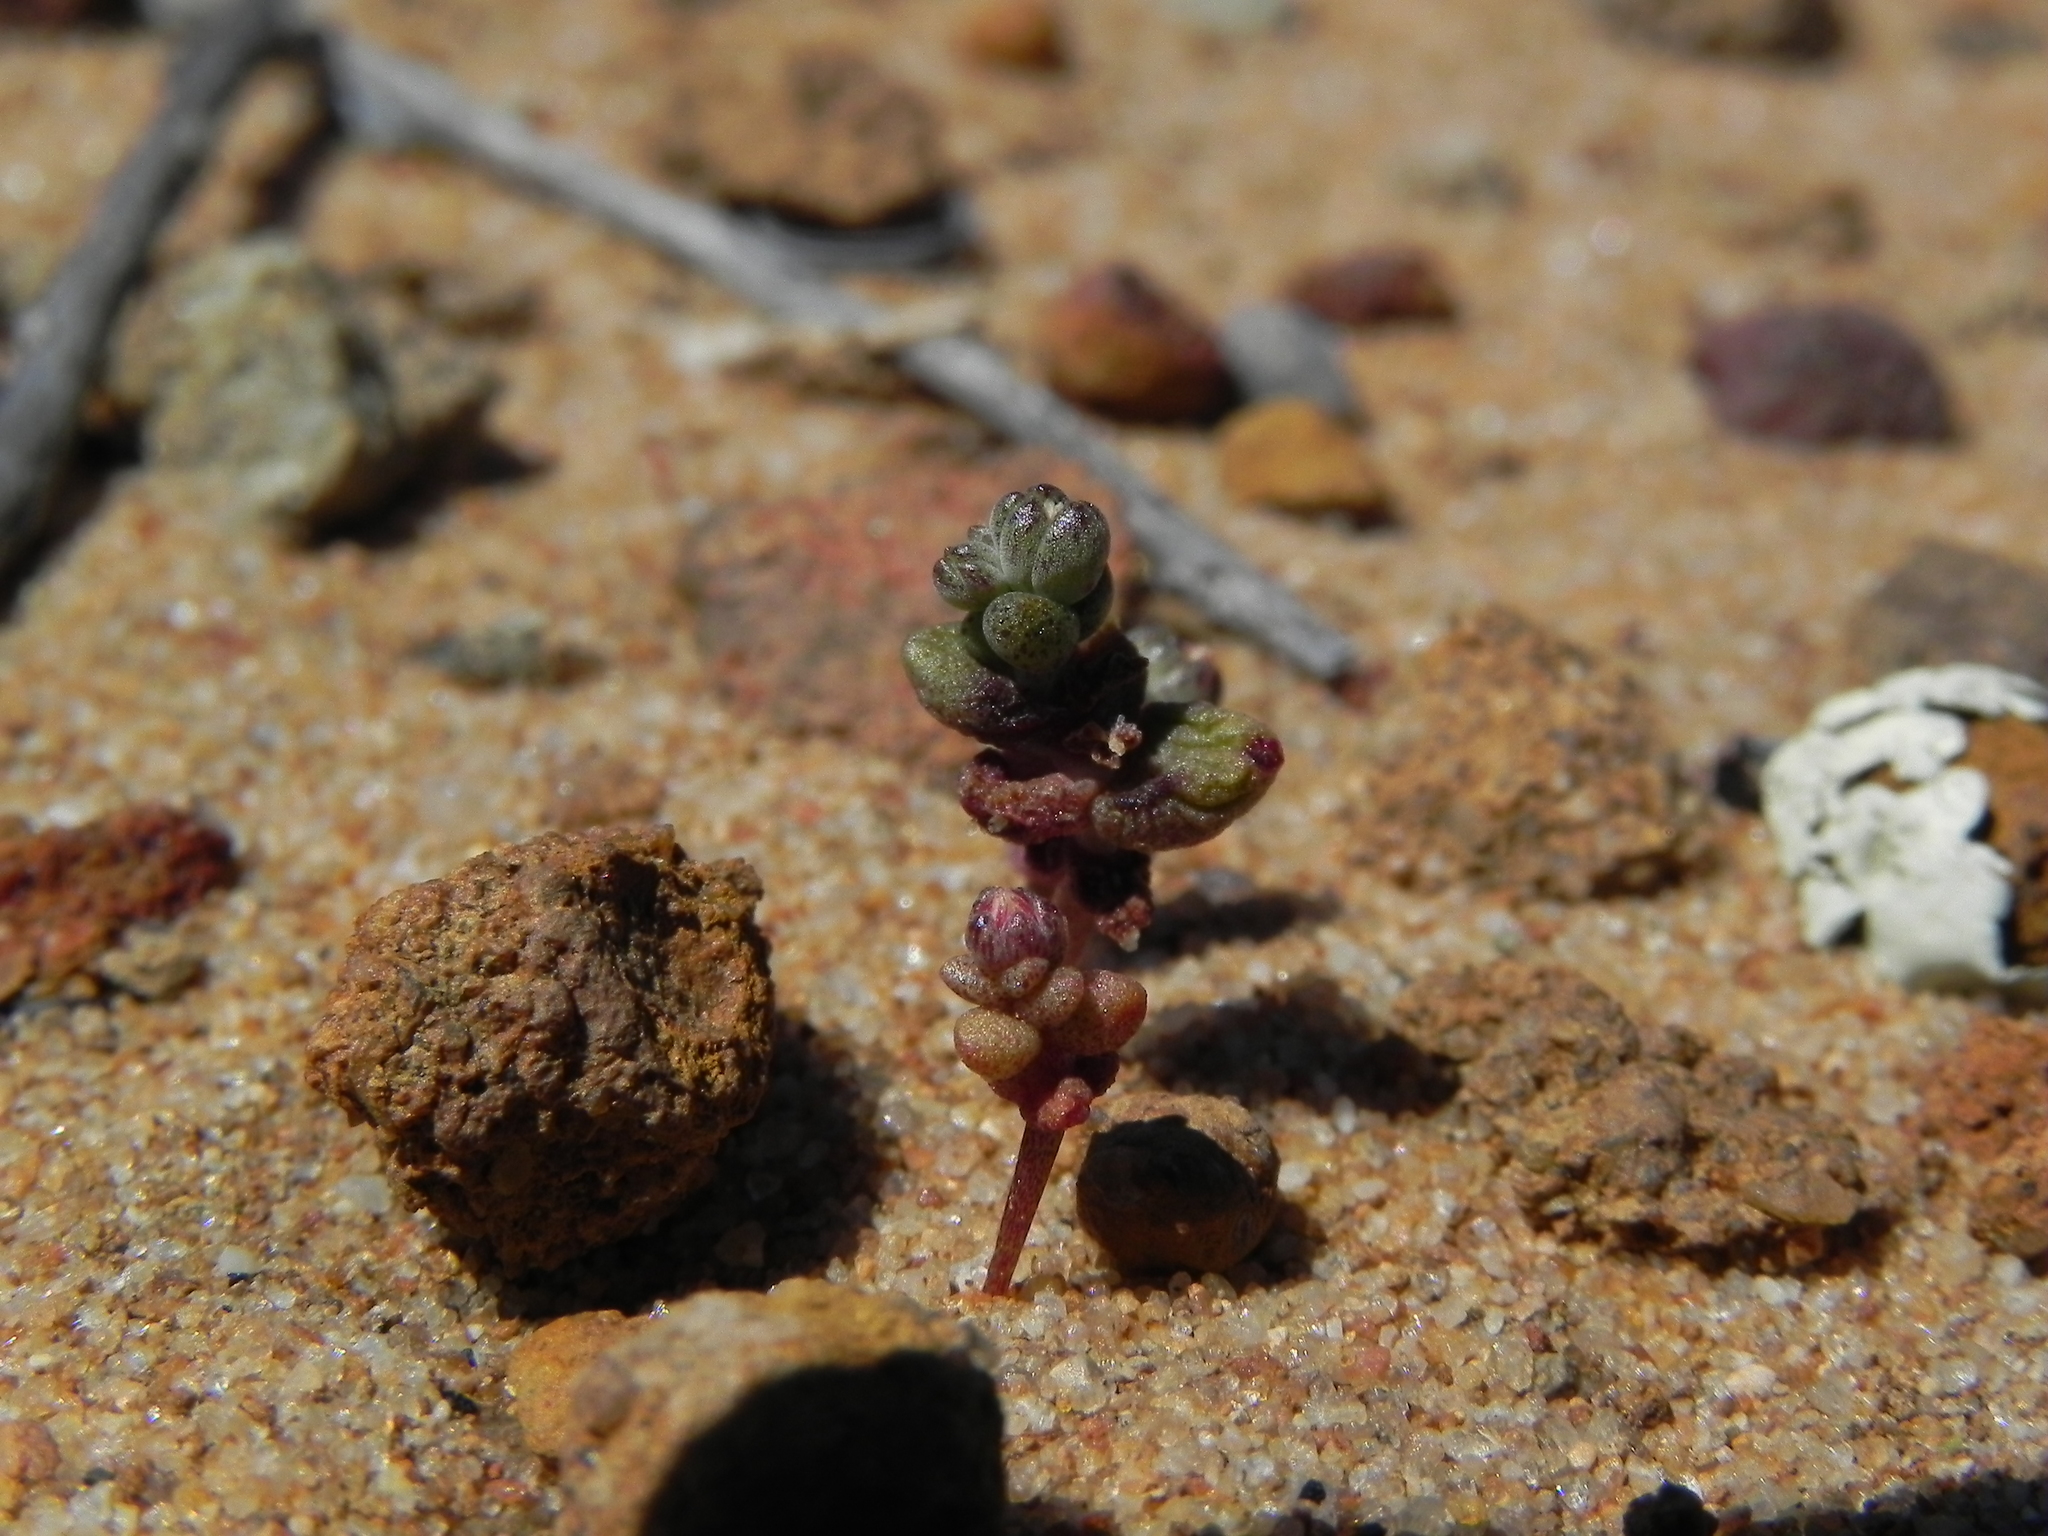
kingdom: Plantae
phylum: Tracheophyta
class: Magnoliopsida
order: Saxifragales
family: Crassulaceae
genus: Dudleya
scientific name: Dudleya blochmaniae
